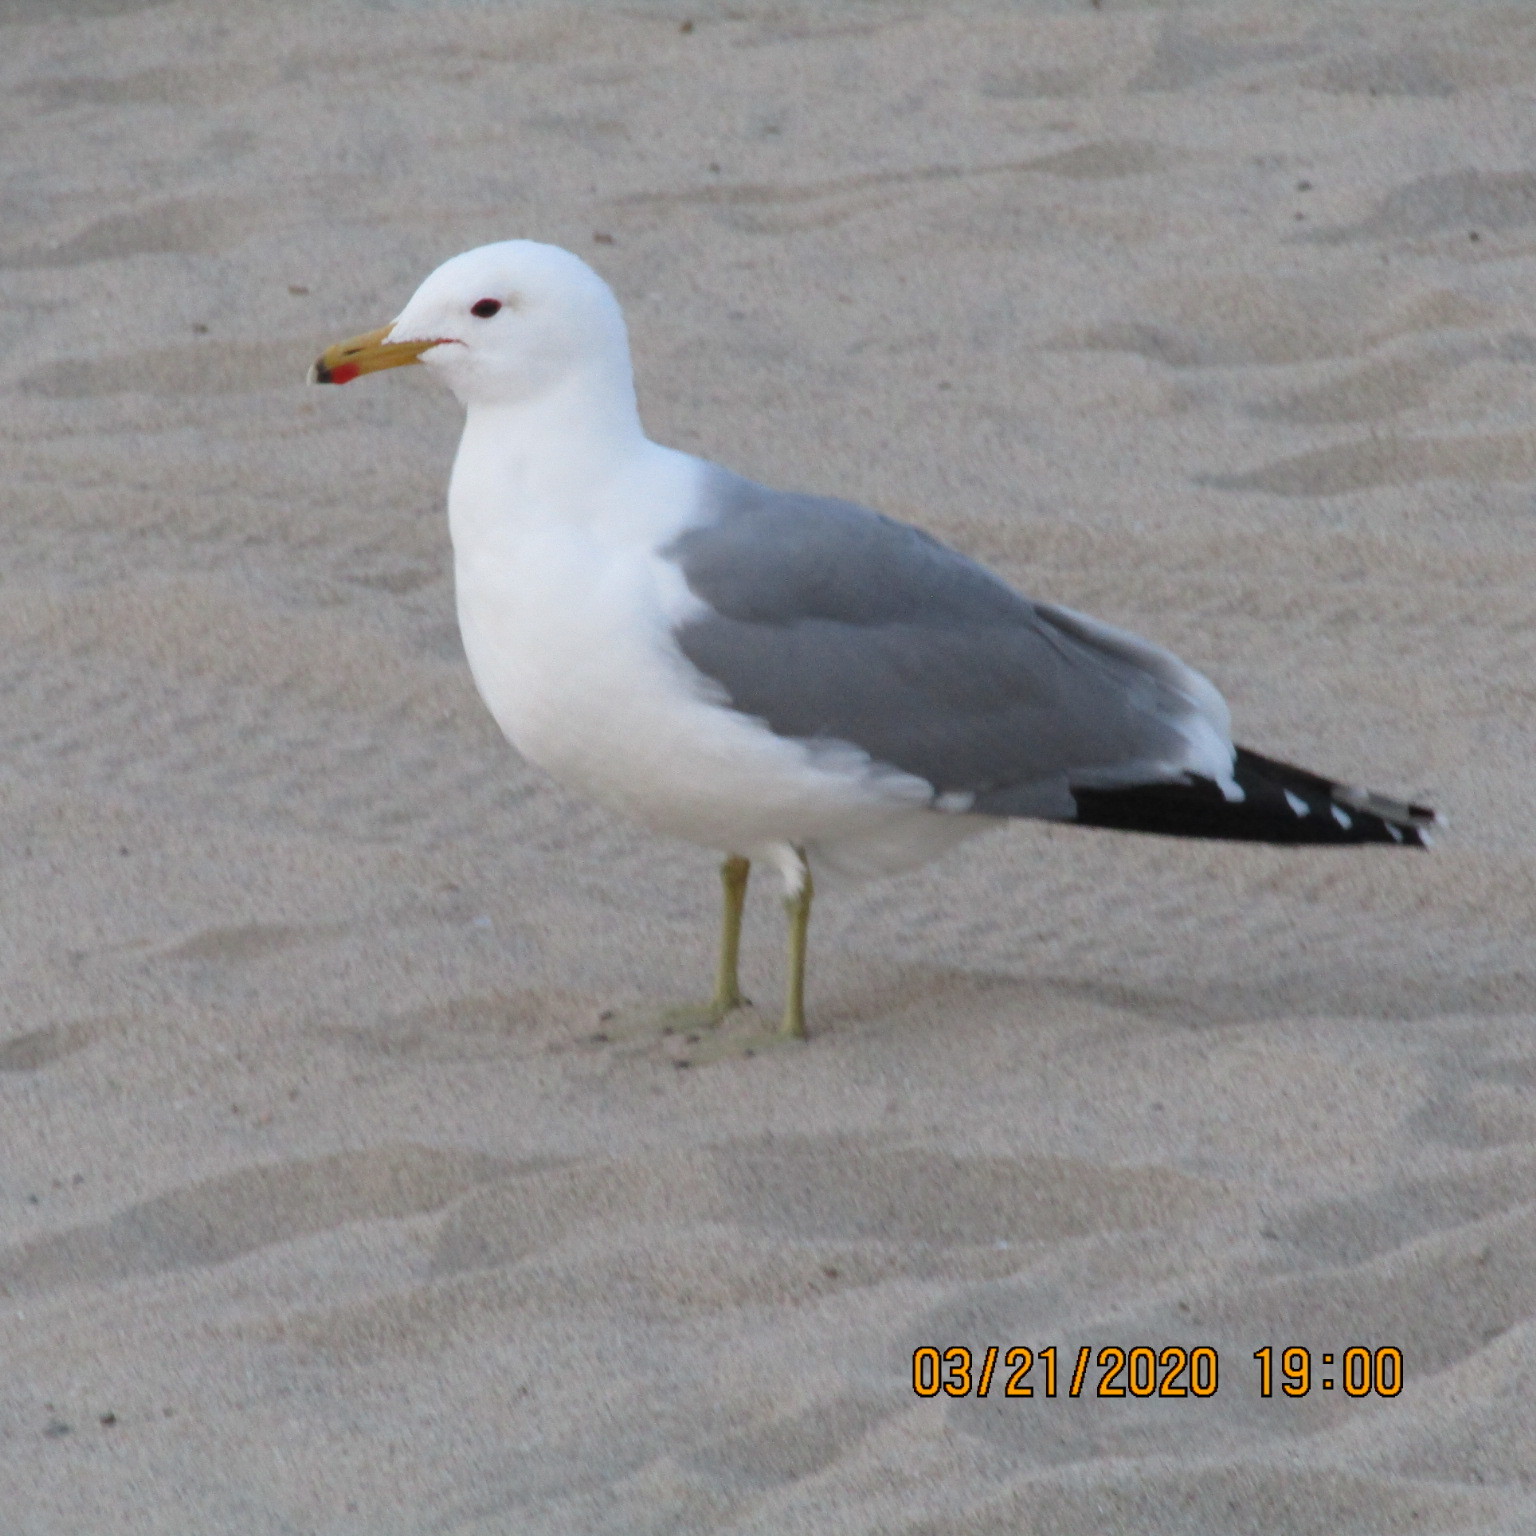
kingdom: Animalia
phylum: Chordata
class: Aves
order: Charadriiformes
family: Laridae
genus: Larus
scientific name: Larus californicus
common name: California gull
